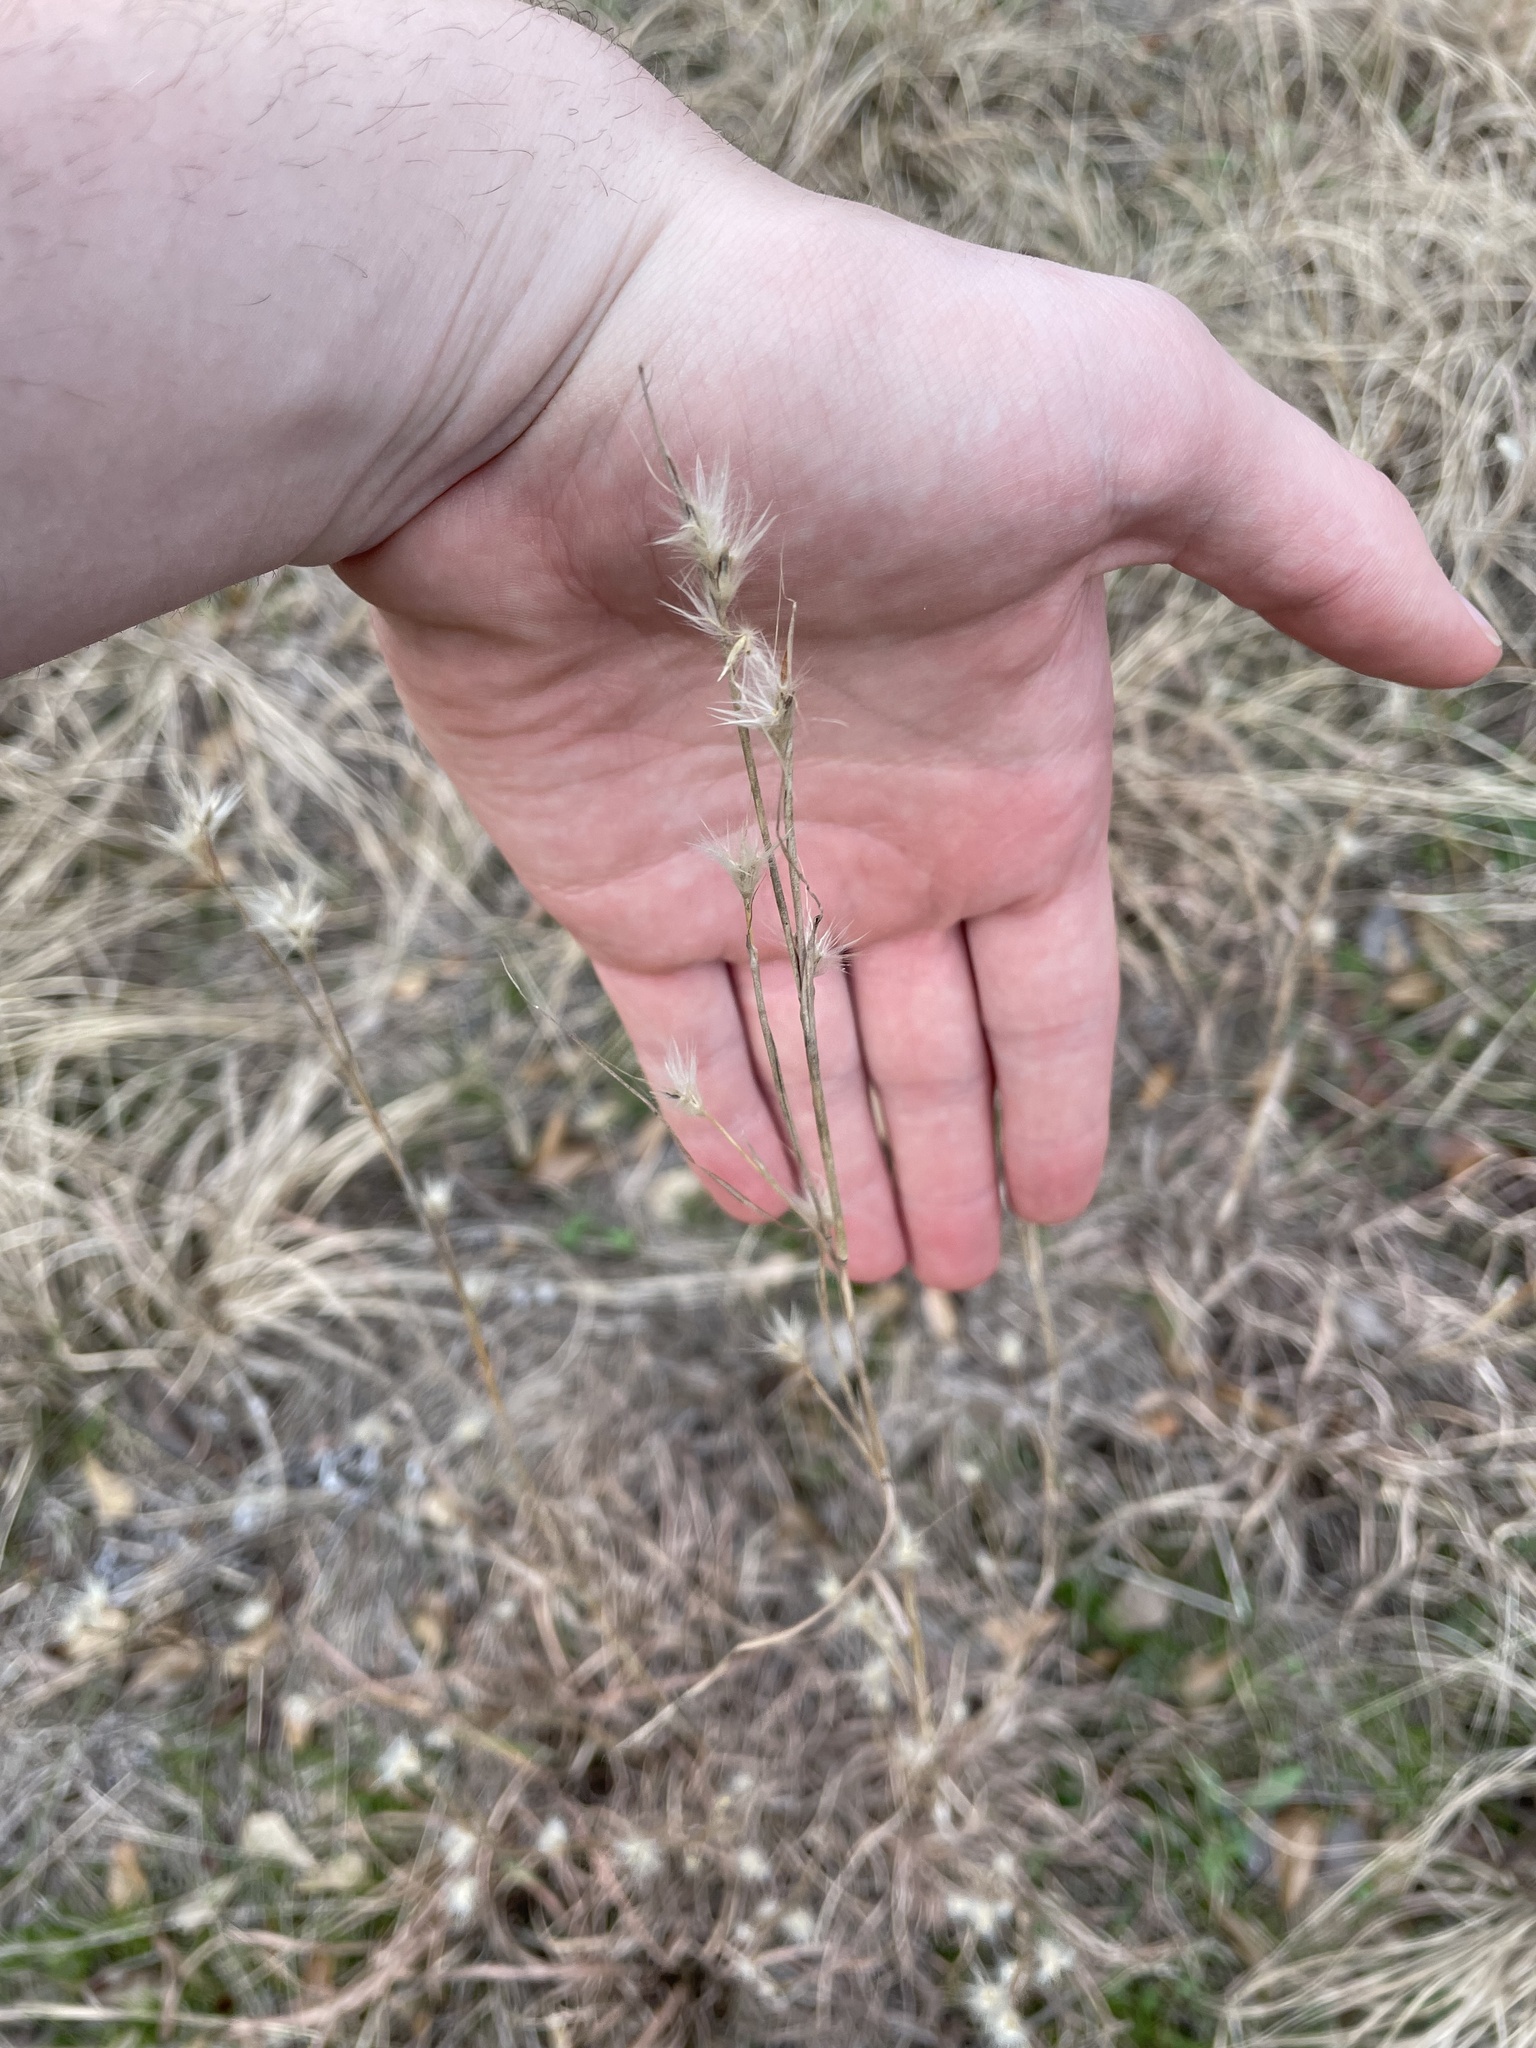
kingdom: Plantae
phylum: Tracheophyta
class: Liliopsida
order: Poales
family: Poaceae
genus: Andropogon
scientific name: Andropogon ternarius
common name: Split bluestem
